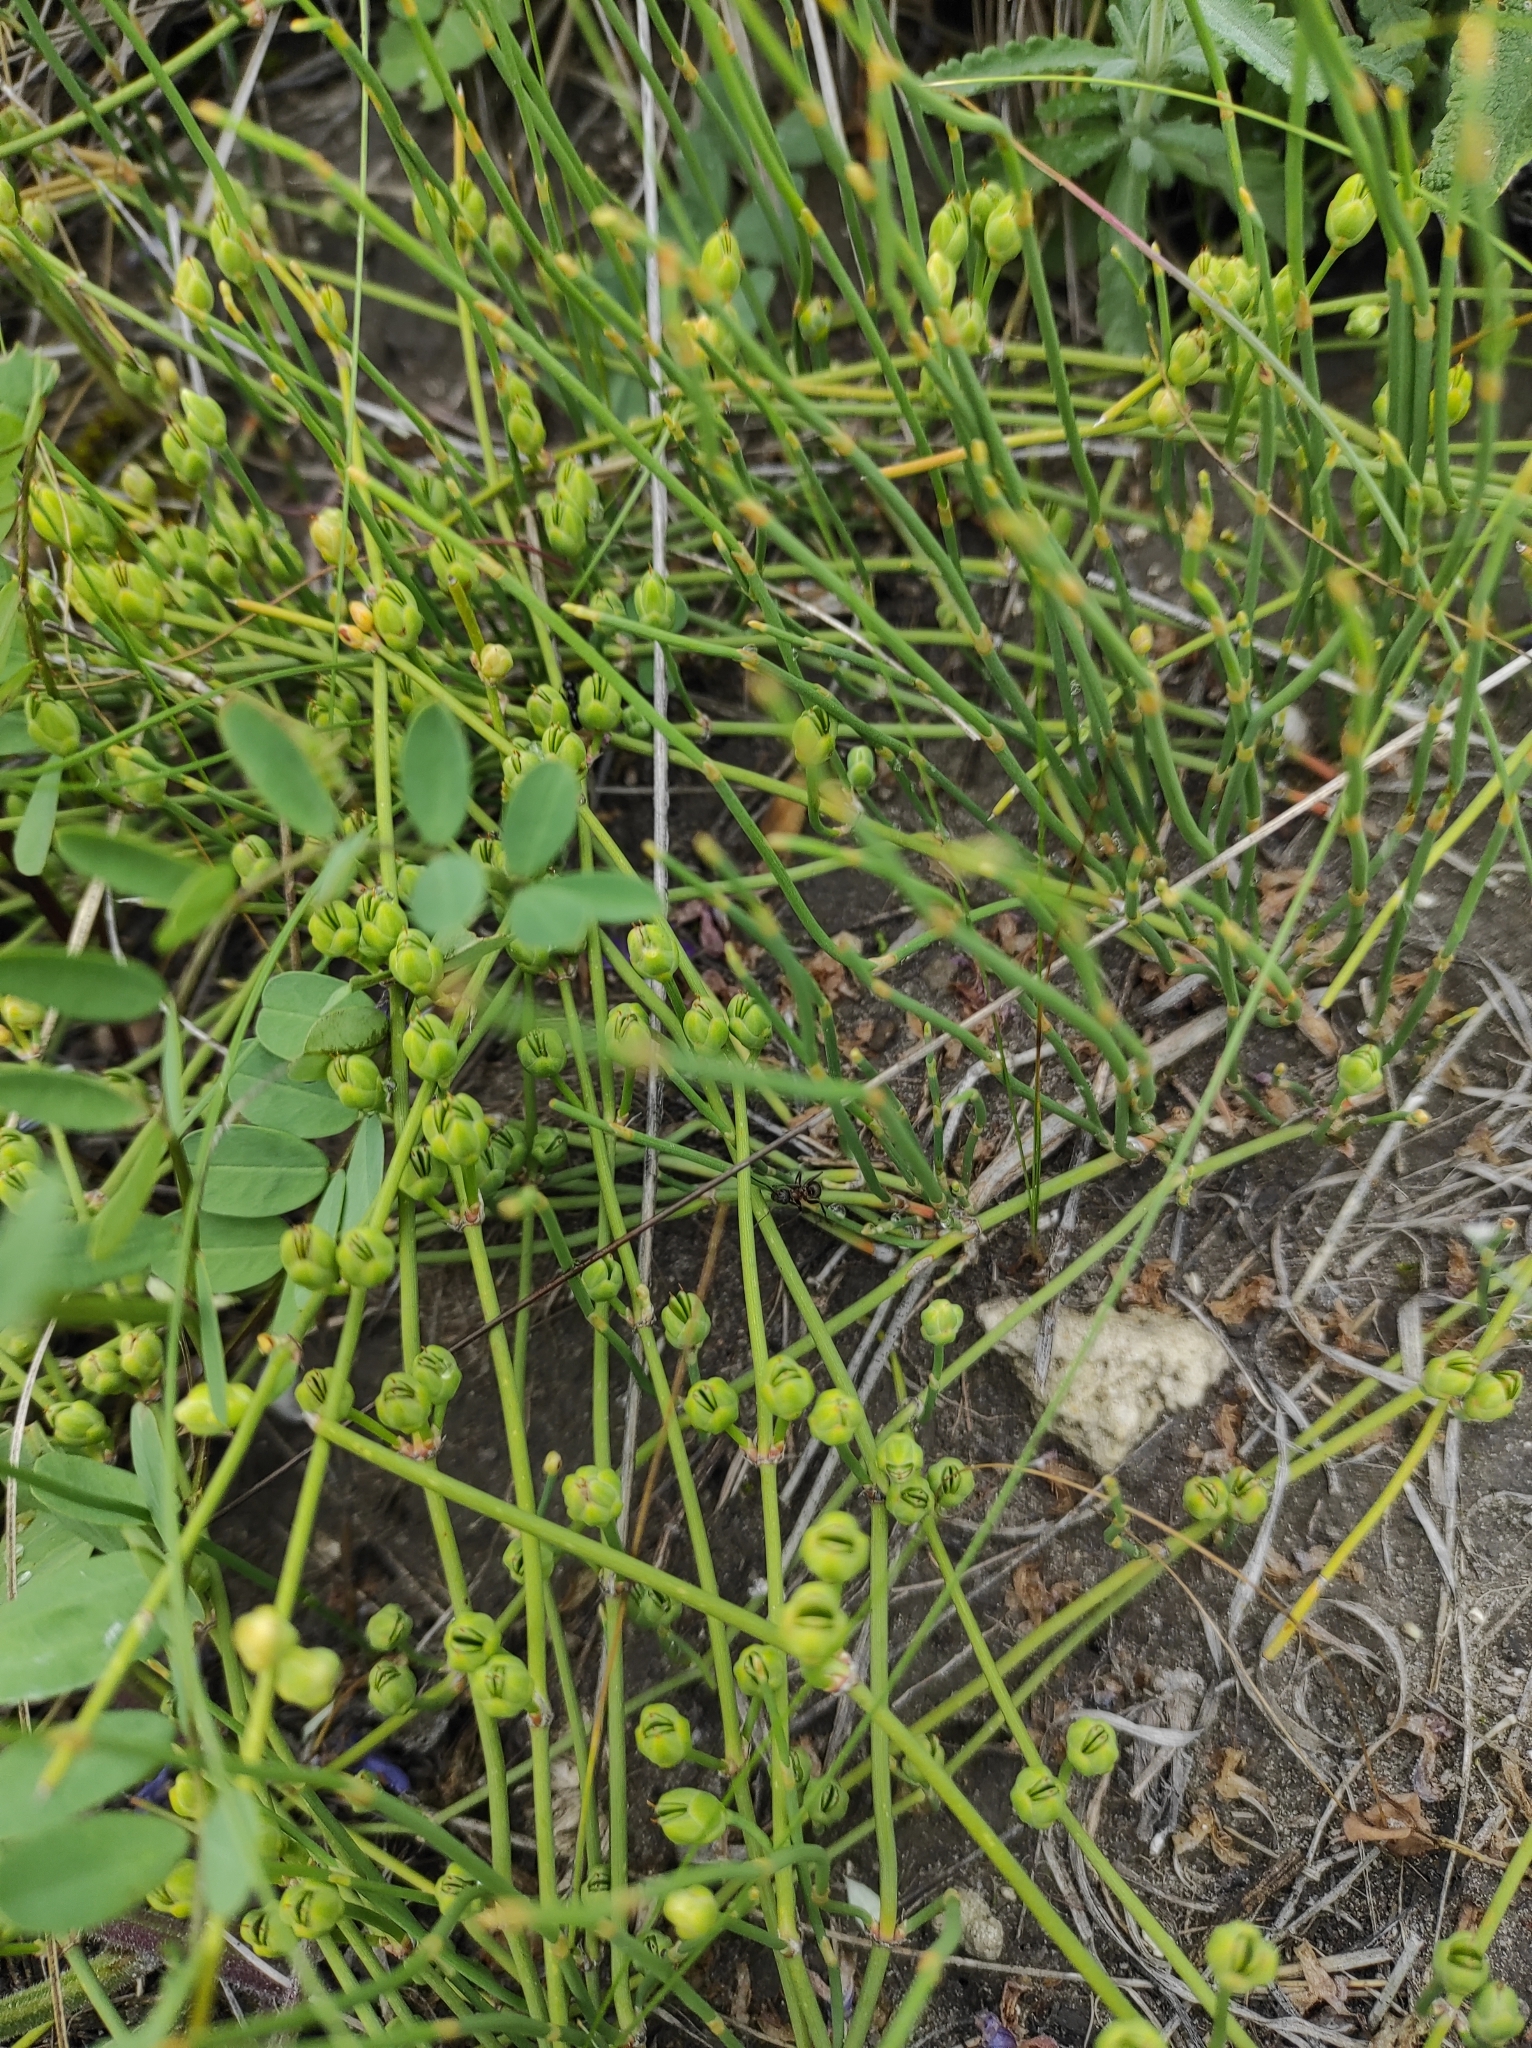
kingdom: Plantae
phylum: Tracheophyta
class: Gnetopsida
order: Ephedrales
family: Ephedraceae
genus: Ephedra
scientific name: Ephedra distachya
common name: Sea grape
